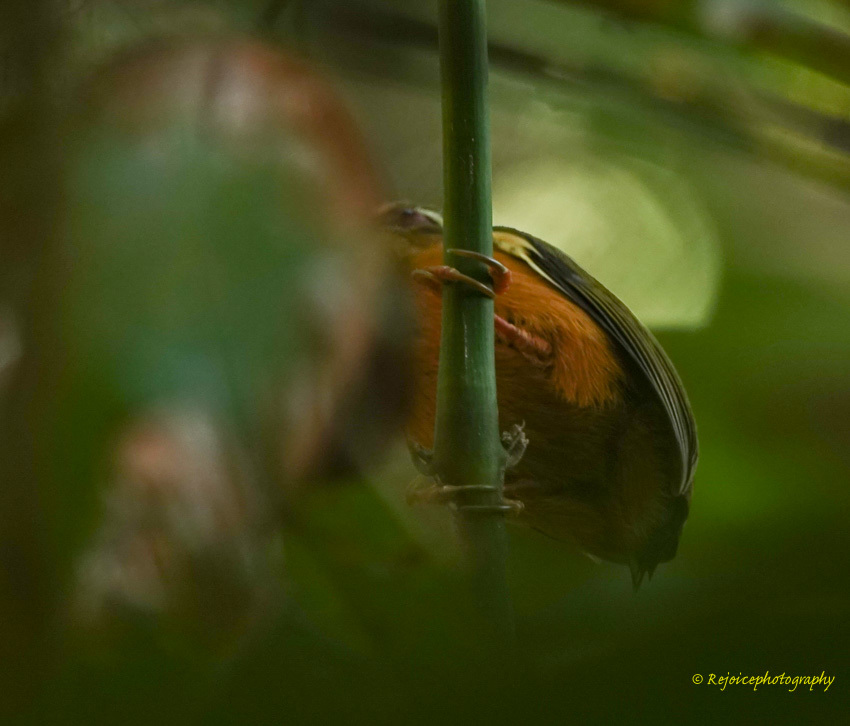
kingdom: Animalia
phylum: Chordata
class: Aves
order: Piciformes
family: Picidae
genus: Sasia
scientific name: Sasia ochracea
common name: White-browed piculet
